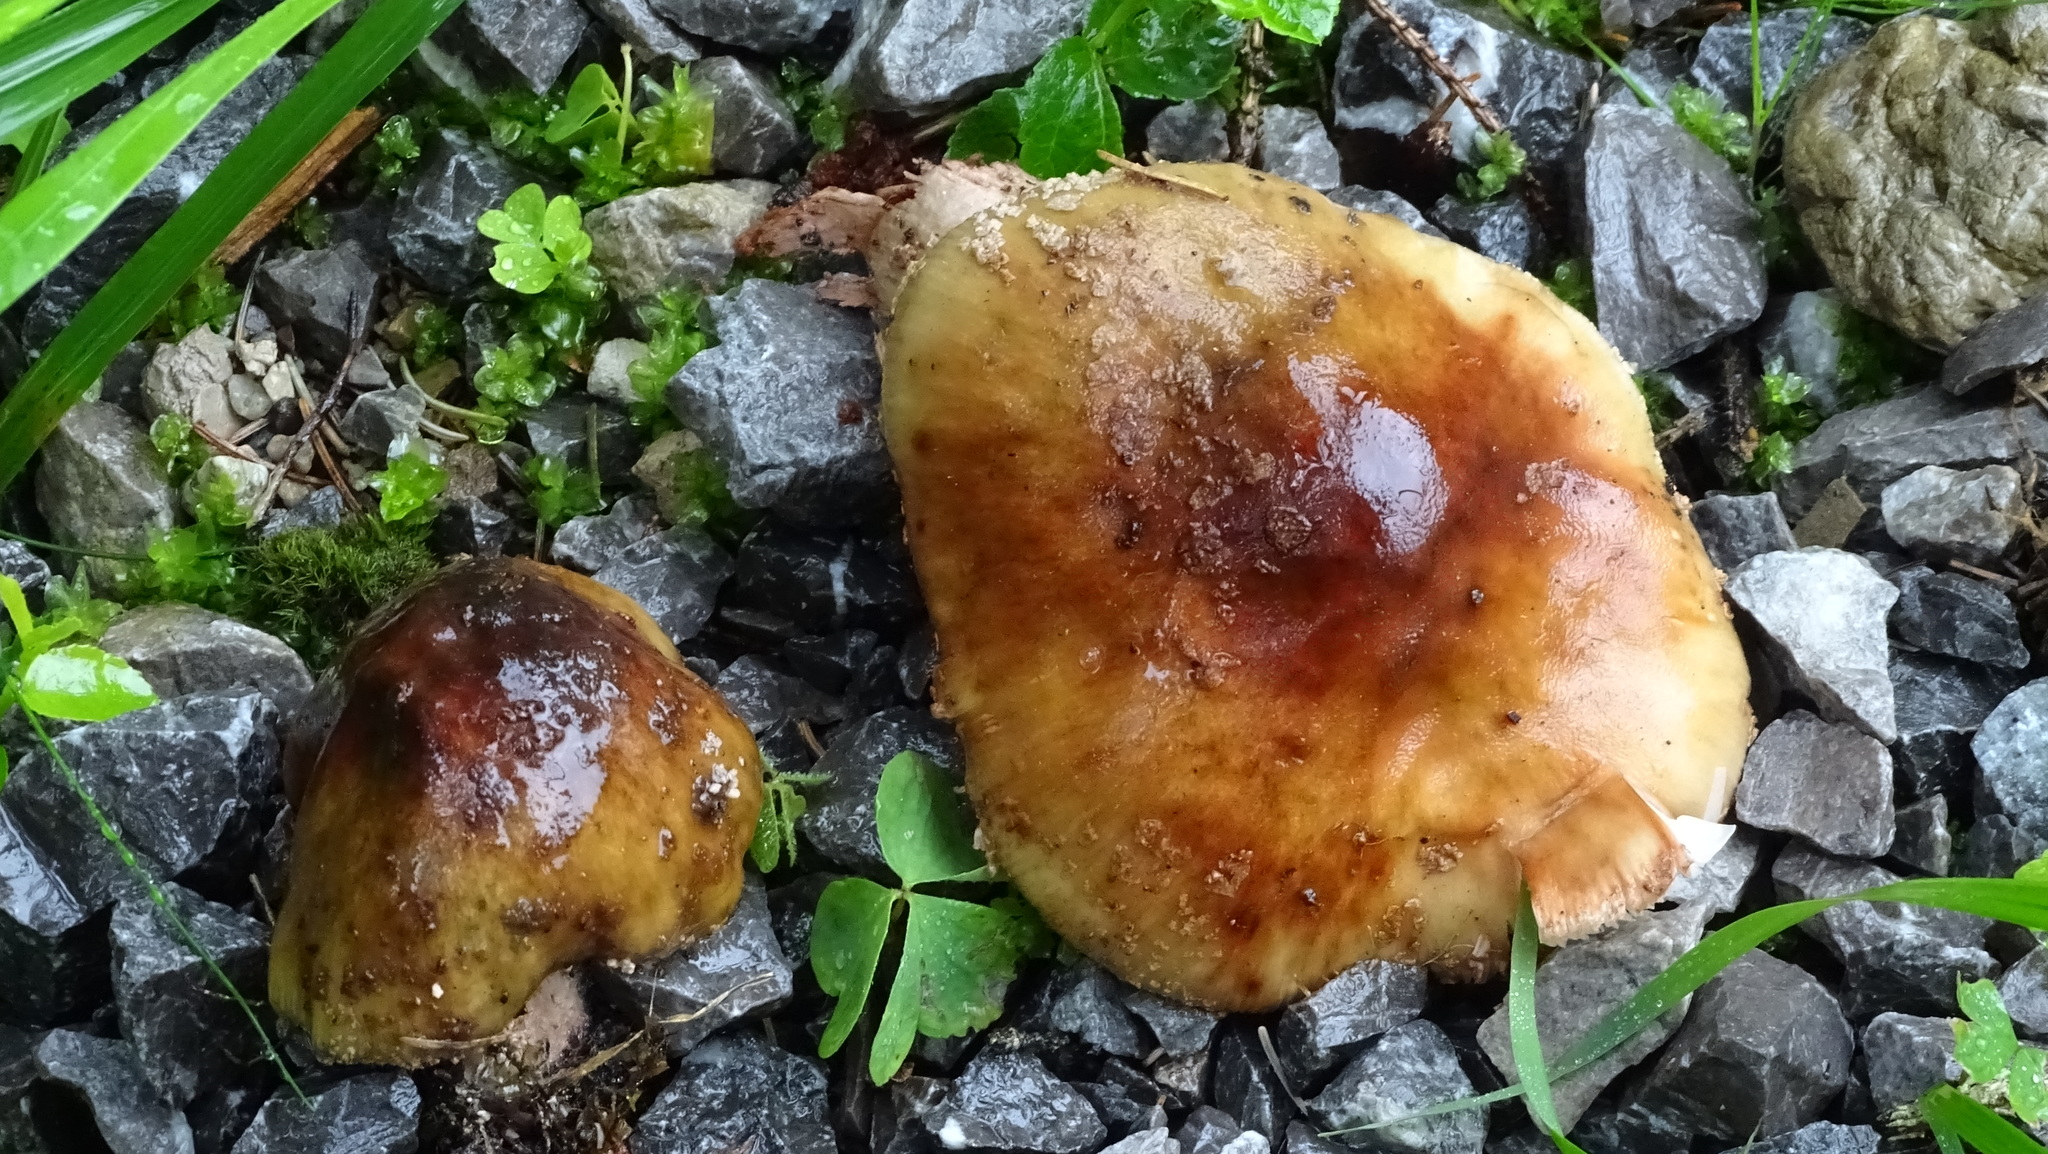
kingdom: Fungi
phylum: Basidiomycota
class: Agaricomycetes
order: Agaricales
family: Amanitaceae
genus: Amanita
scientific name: Amanita rubescens
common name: Blusher
